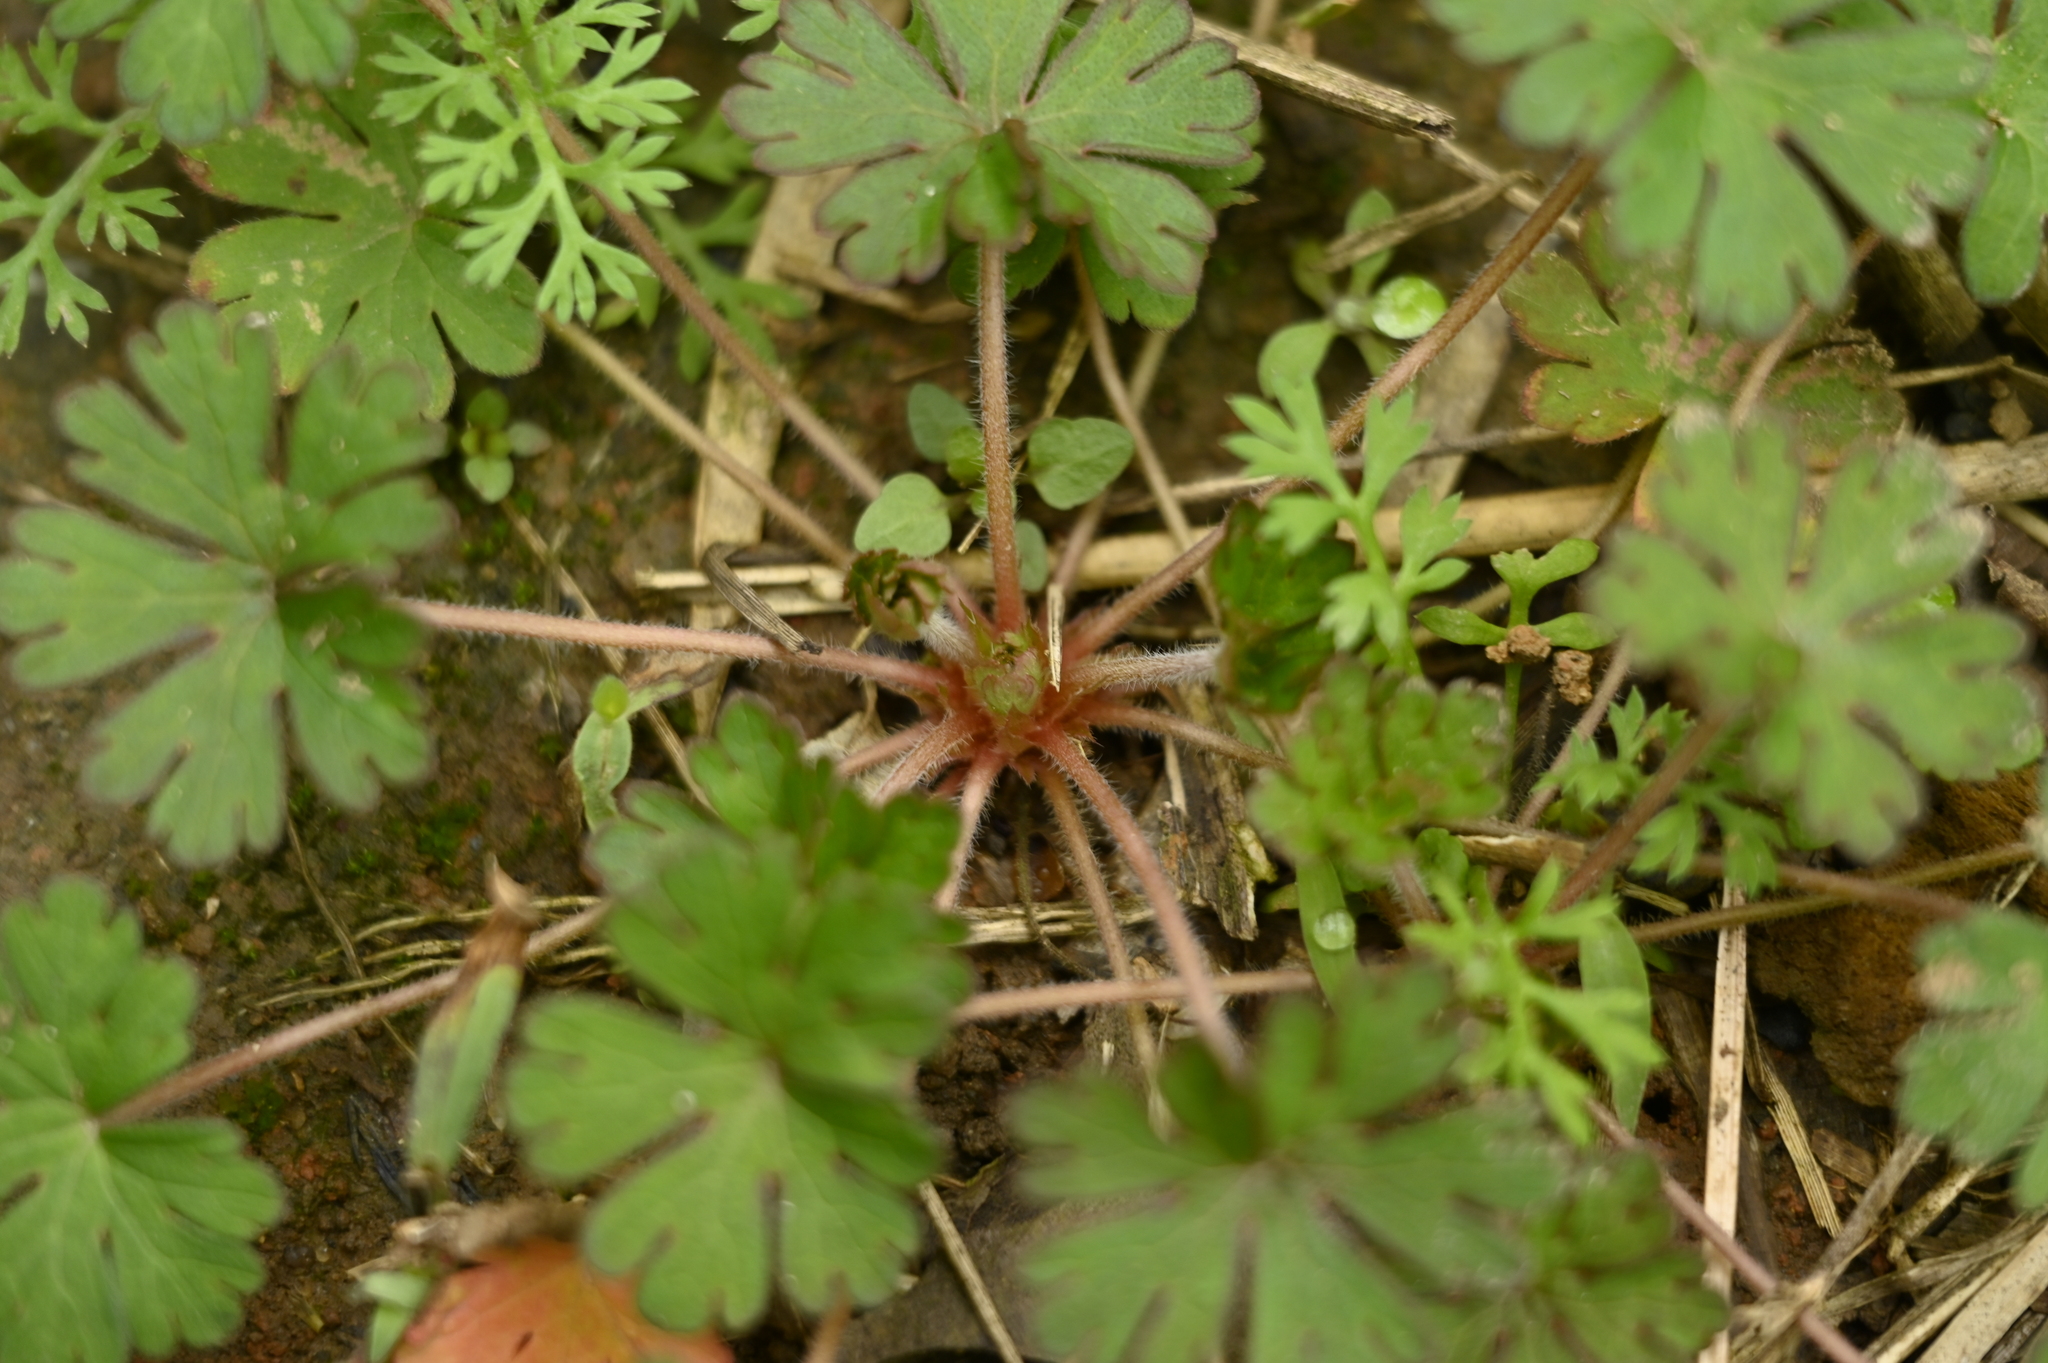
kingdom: Plantae
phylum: Tracheophyta
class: Magnoliopsida
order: Geraniales
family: Geraniaceae
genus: Geranium
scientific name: Geranium carolinianum
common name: Carolina crane's-bill
